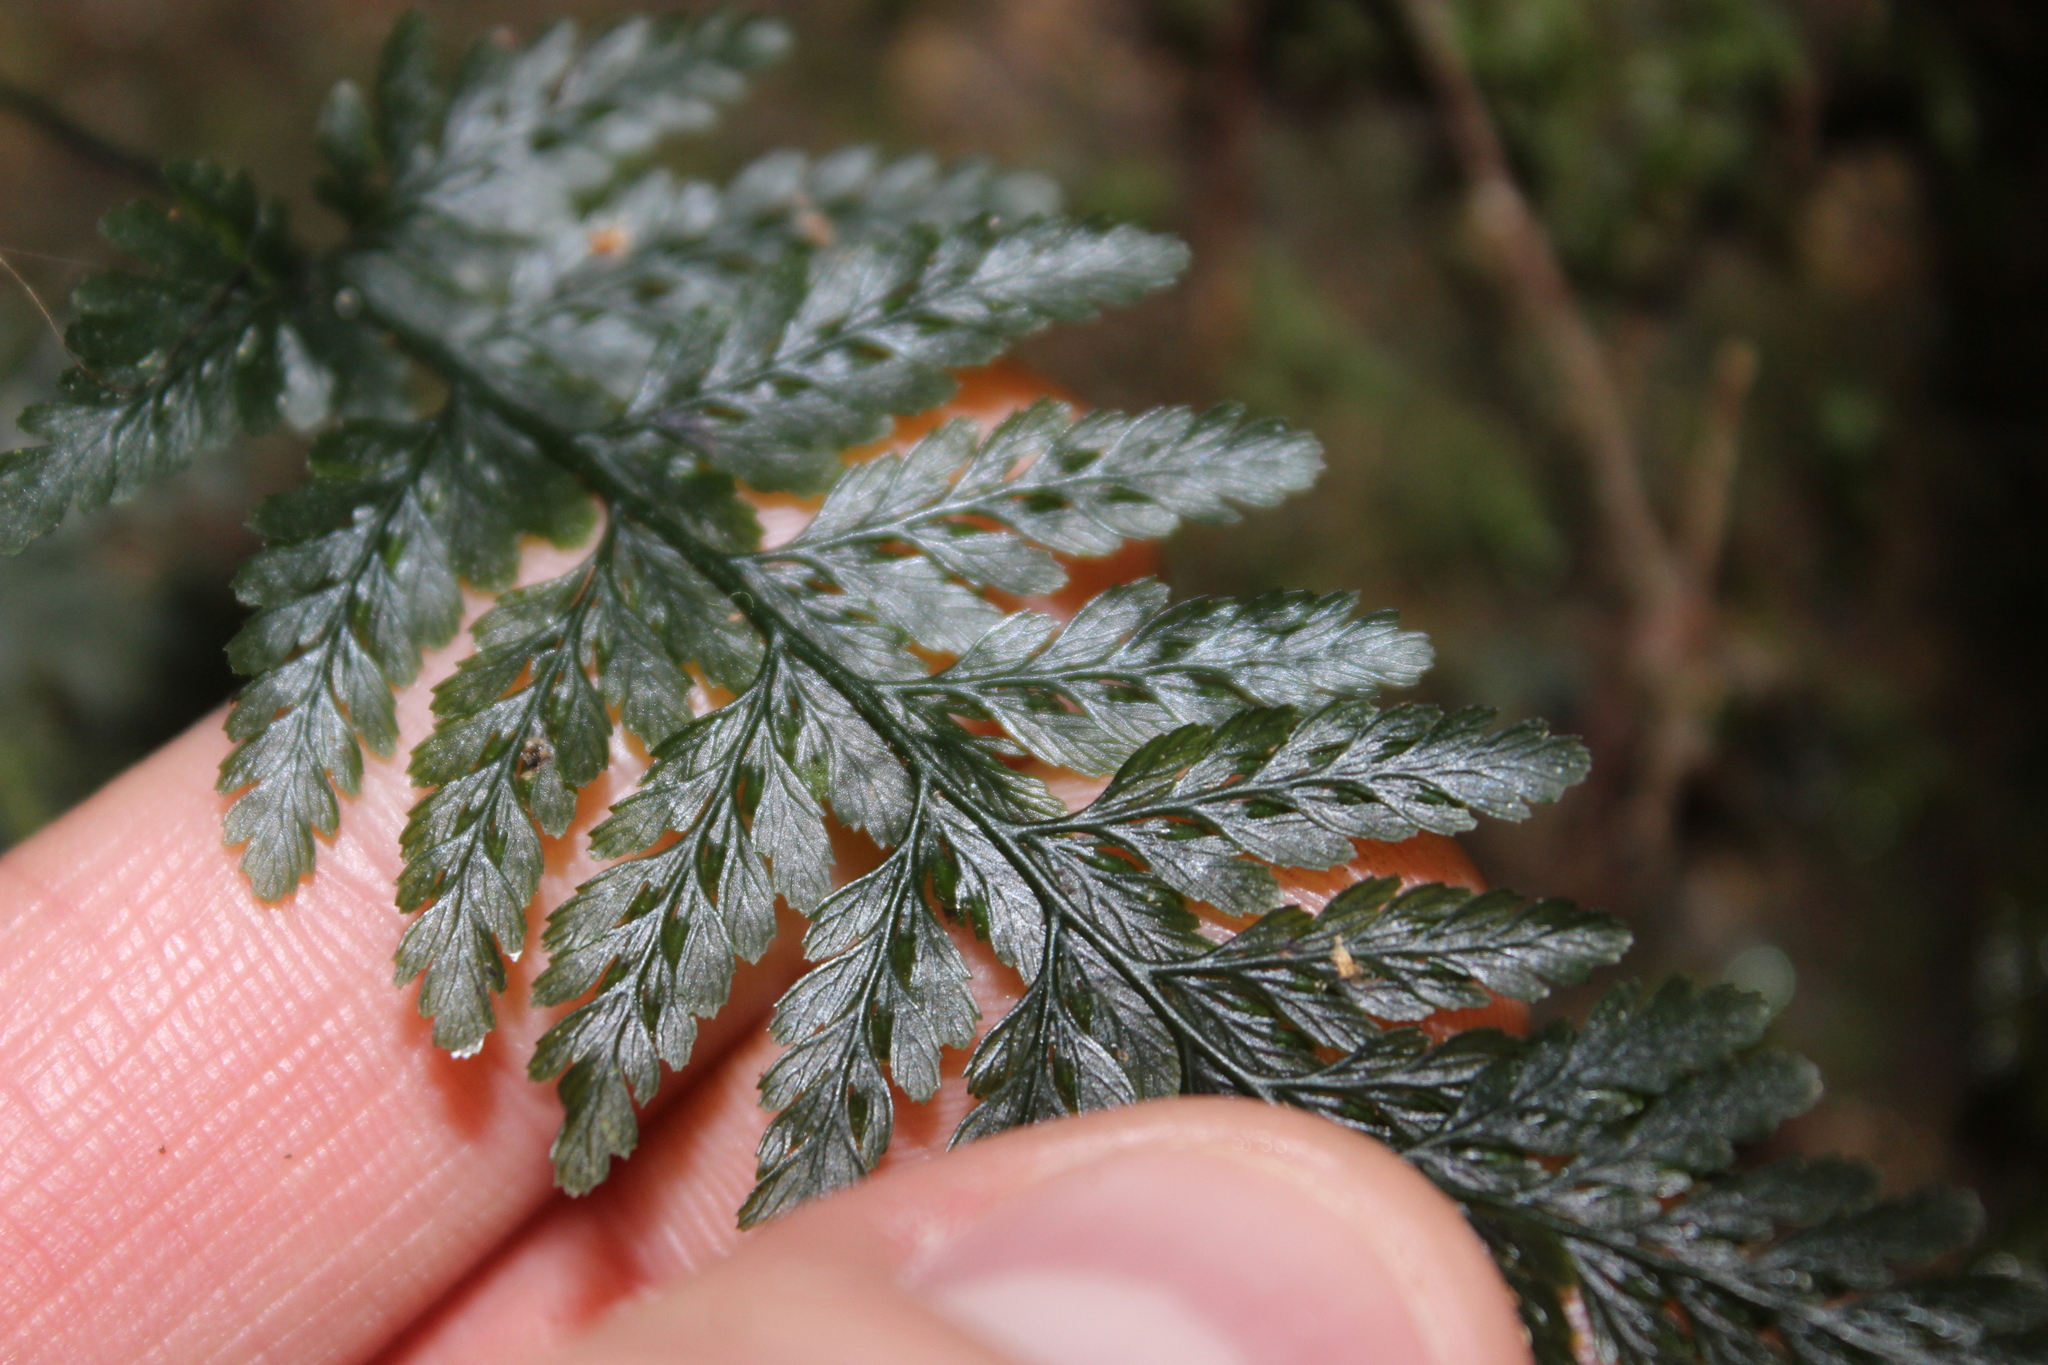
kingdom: Plantae
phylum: Tracheophyta
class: Polypodiopsida
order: Hymenophyllales
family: Hymenophyllaceae
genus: Abrodictyum
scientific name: Abrodictyum elongatum
